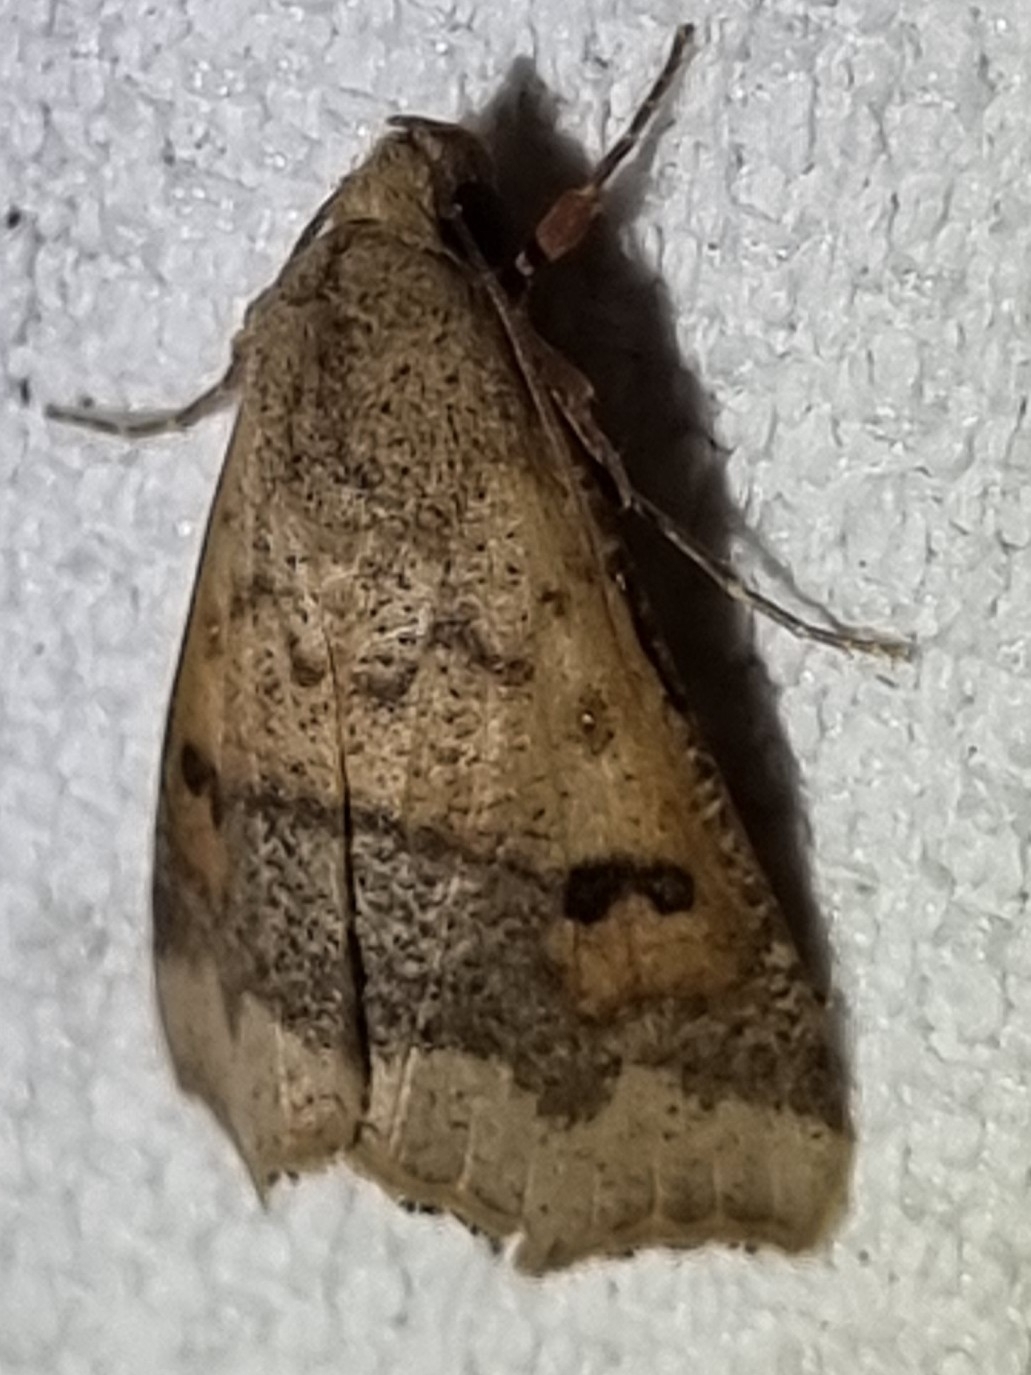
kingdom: Animalia
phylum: Arthropoda
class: Insecta
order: Lepidoptera
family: Erebidae
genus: Gonitis
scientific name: Gonitis involuta
